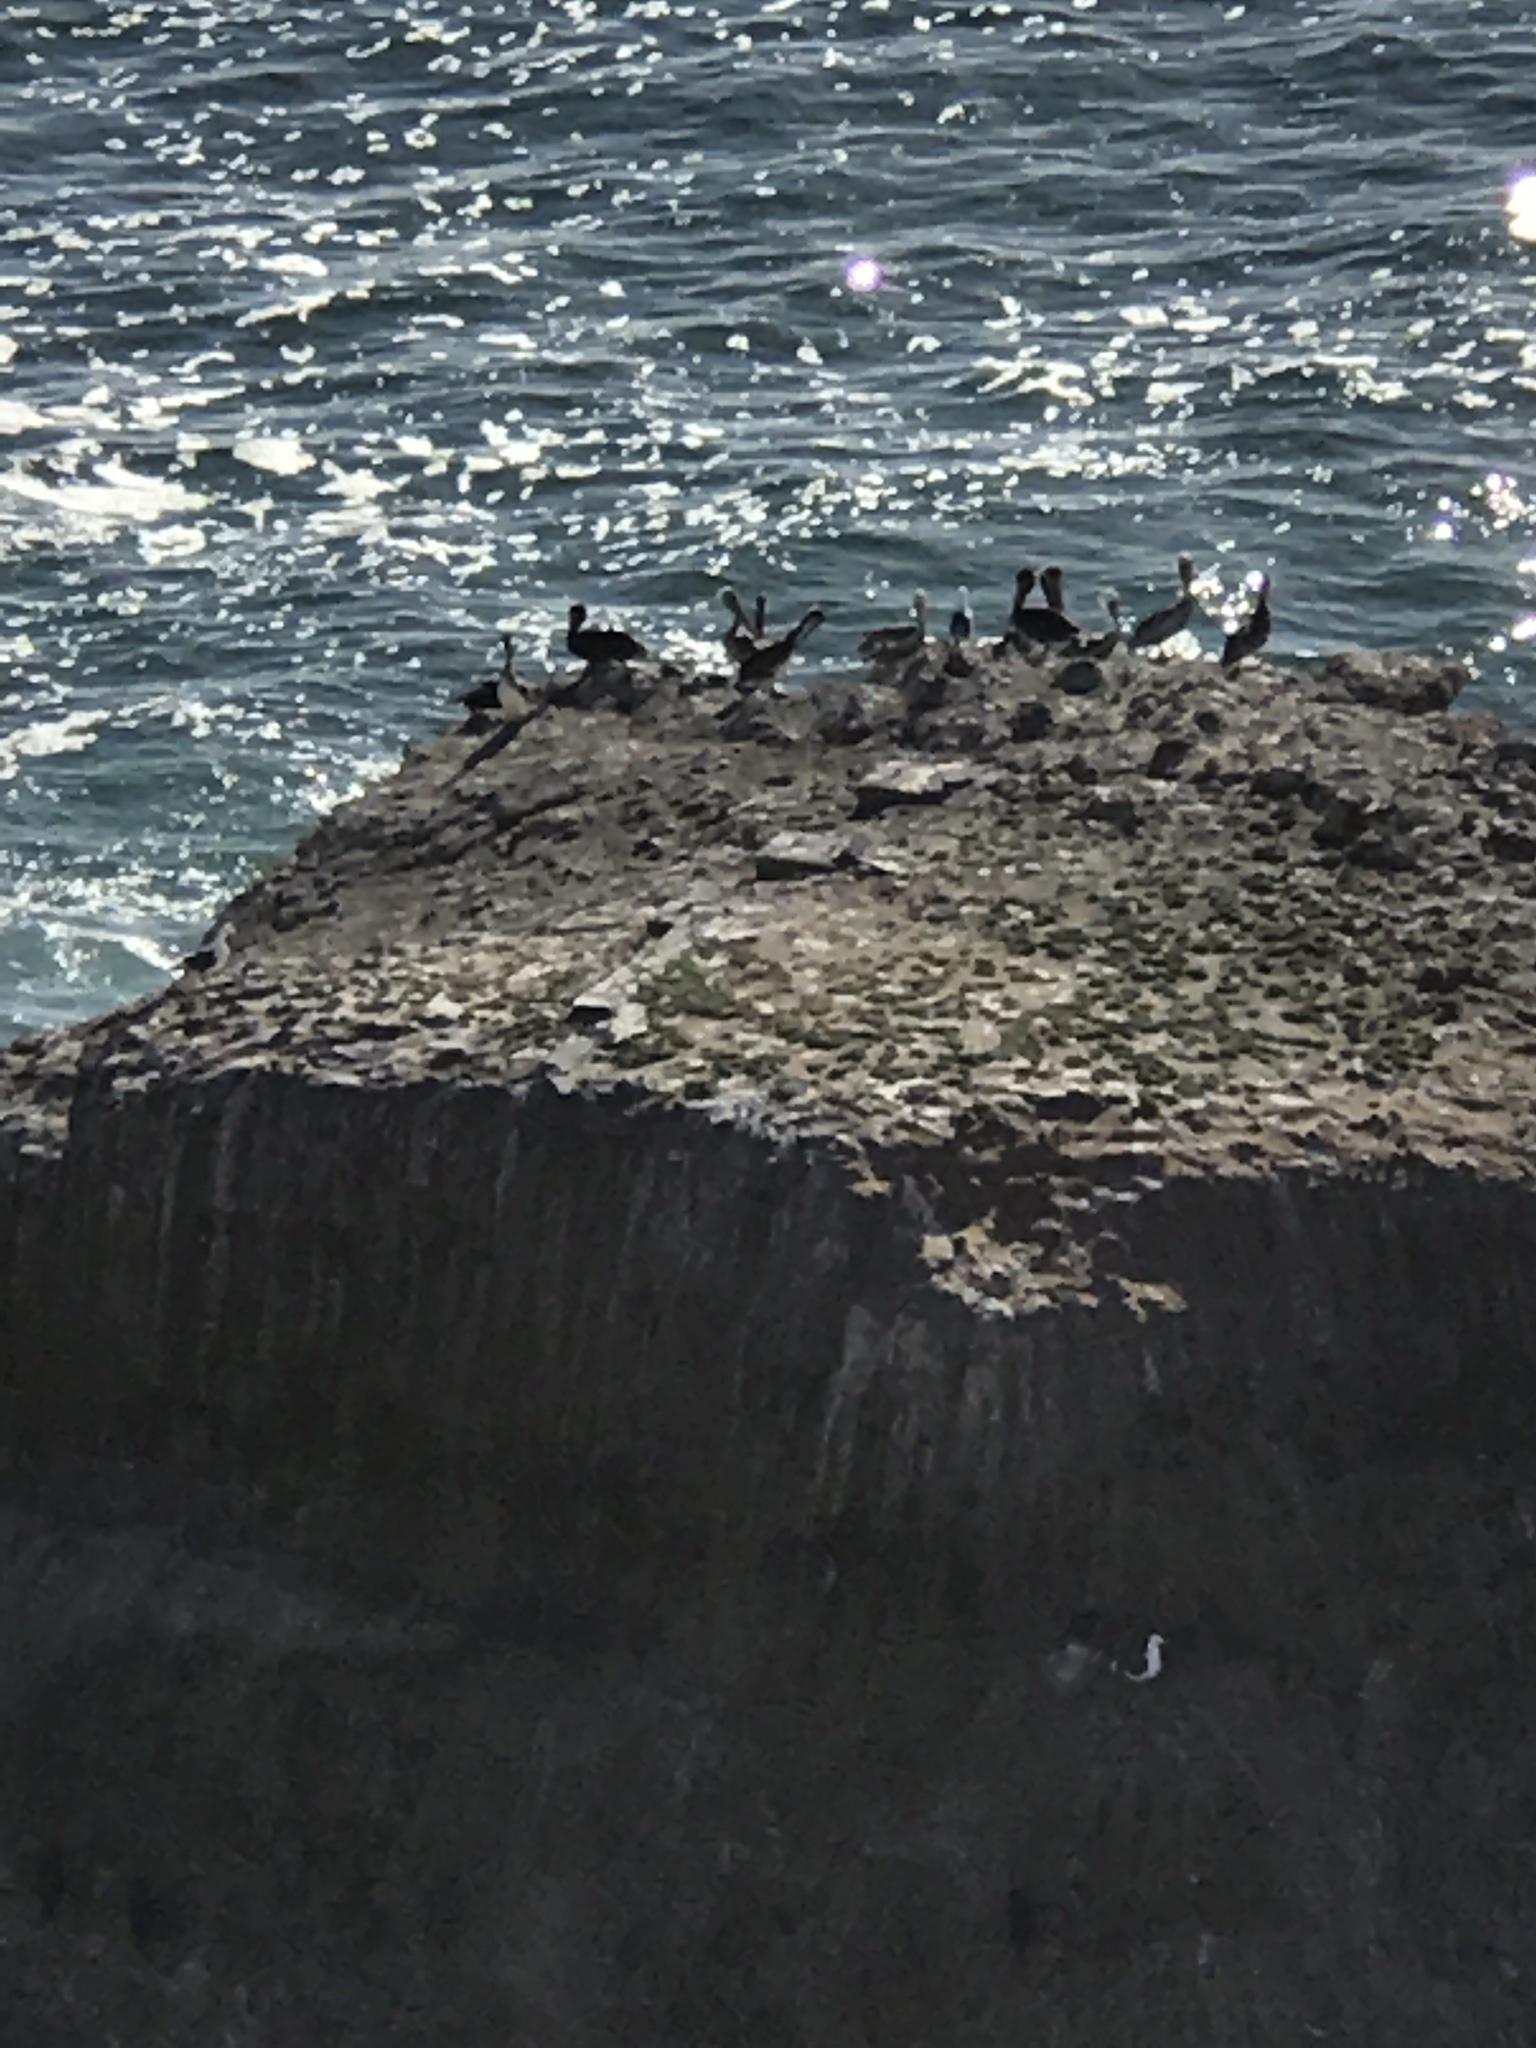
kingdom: Animalia
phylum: Chordata
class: Aves
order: Pelecaniformes
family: Pelecanidae
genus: Pelecanus
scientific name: Pelecanus occidentalis
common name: Brown pelican
